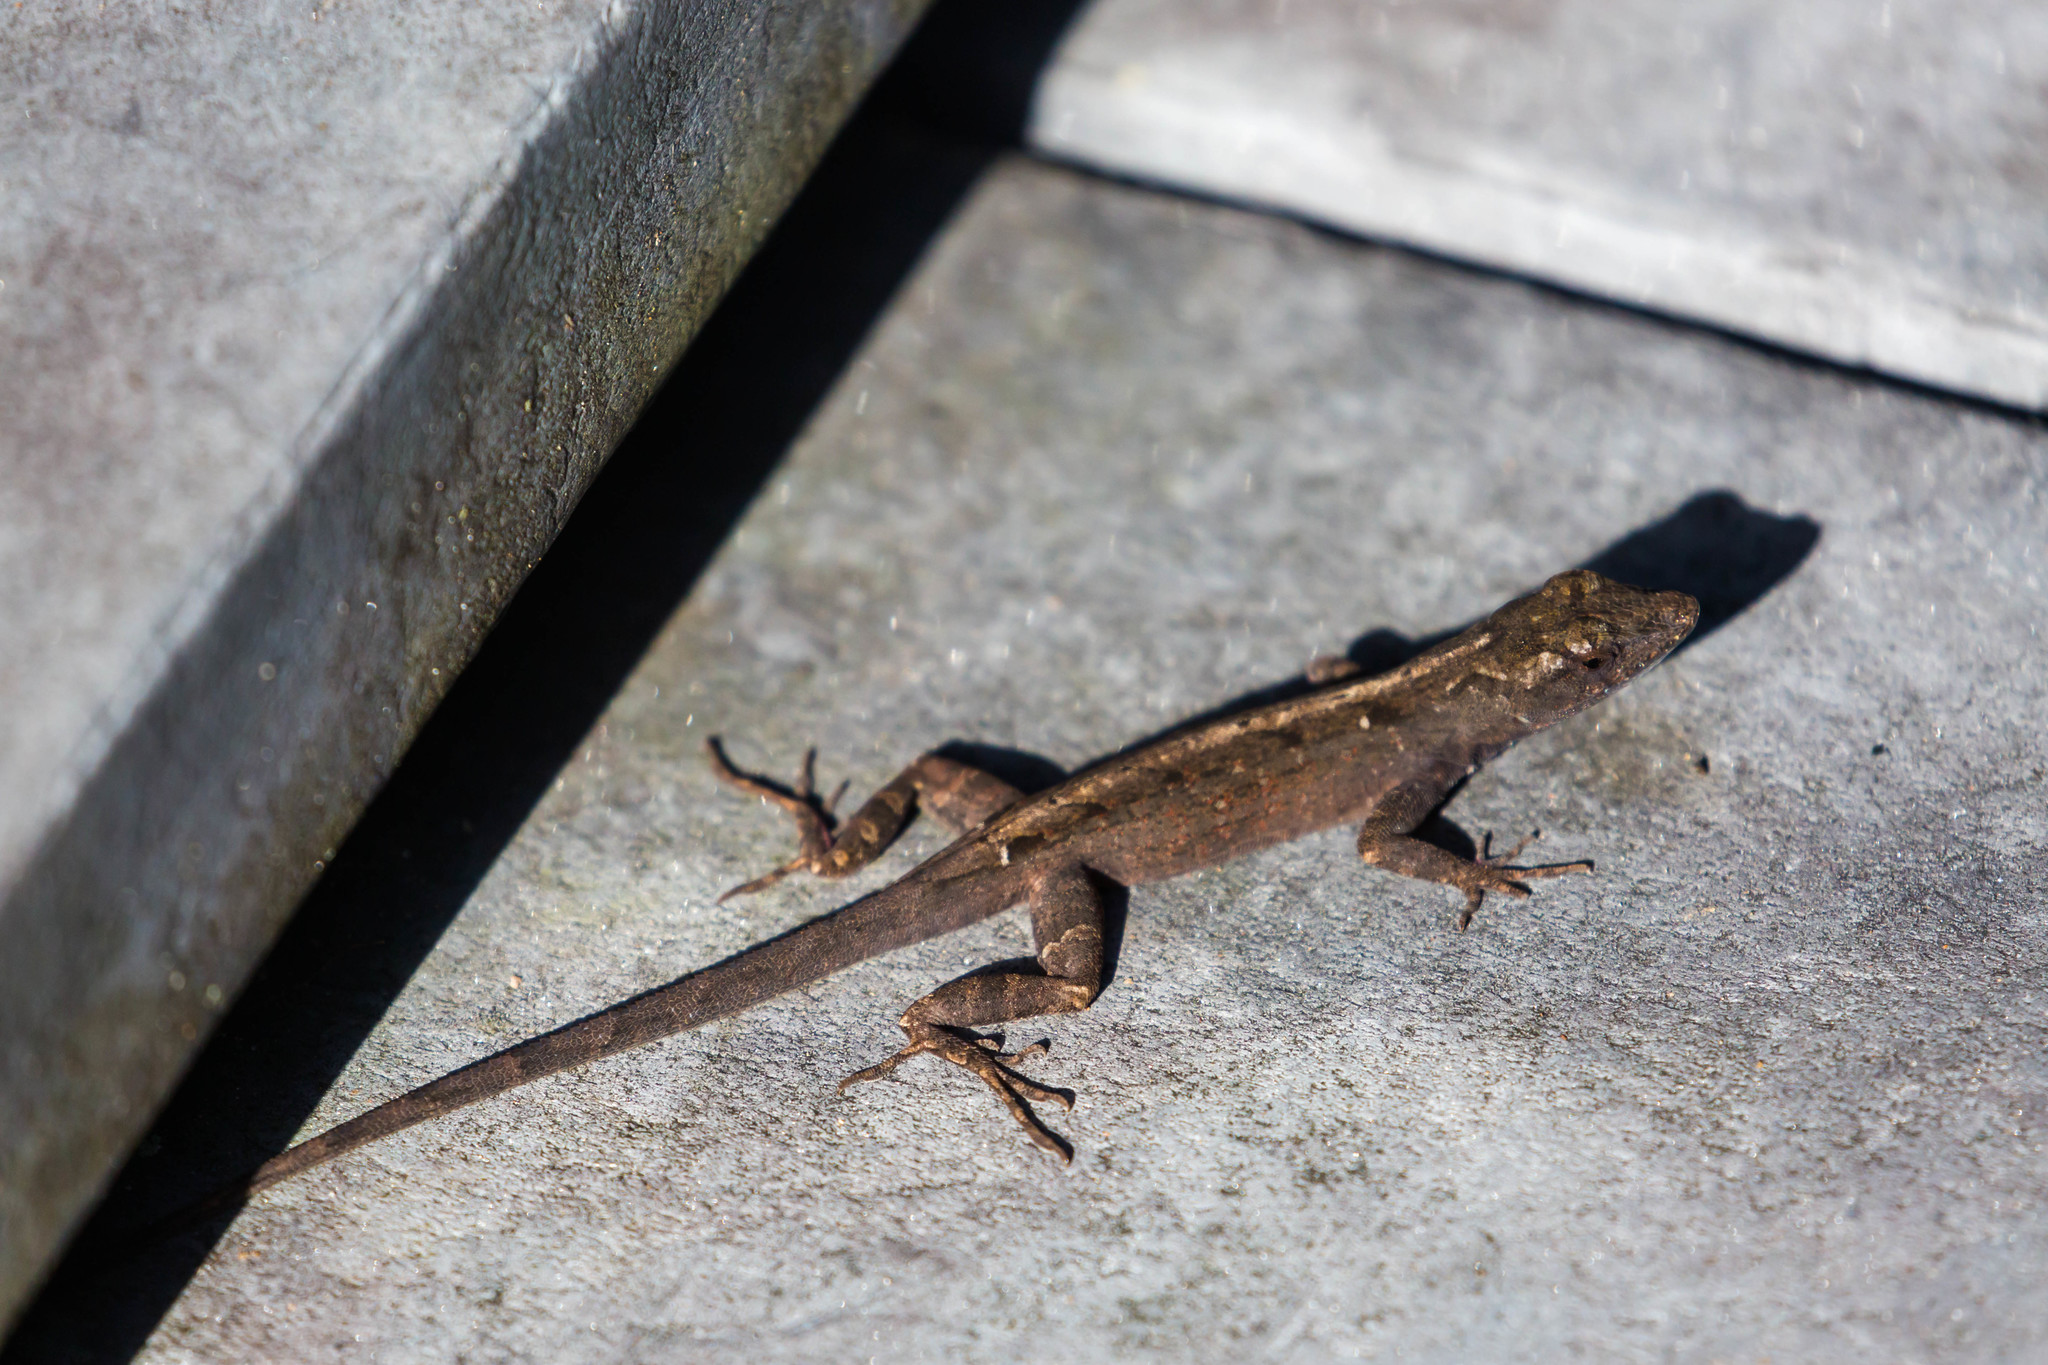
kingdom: Animalia
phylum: Chordata
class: Squamata
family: Dactyloidae
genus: Anolis
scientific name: Anolis sagrei
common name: Brown anole
